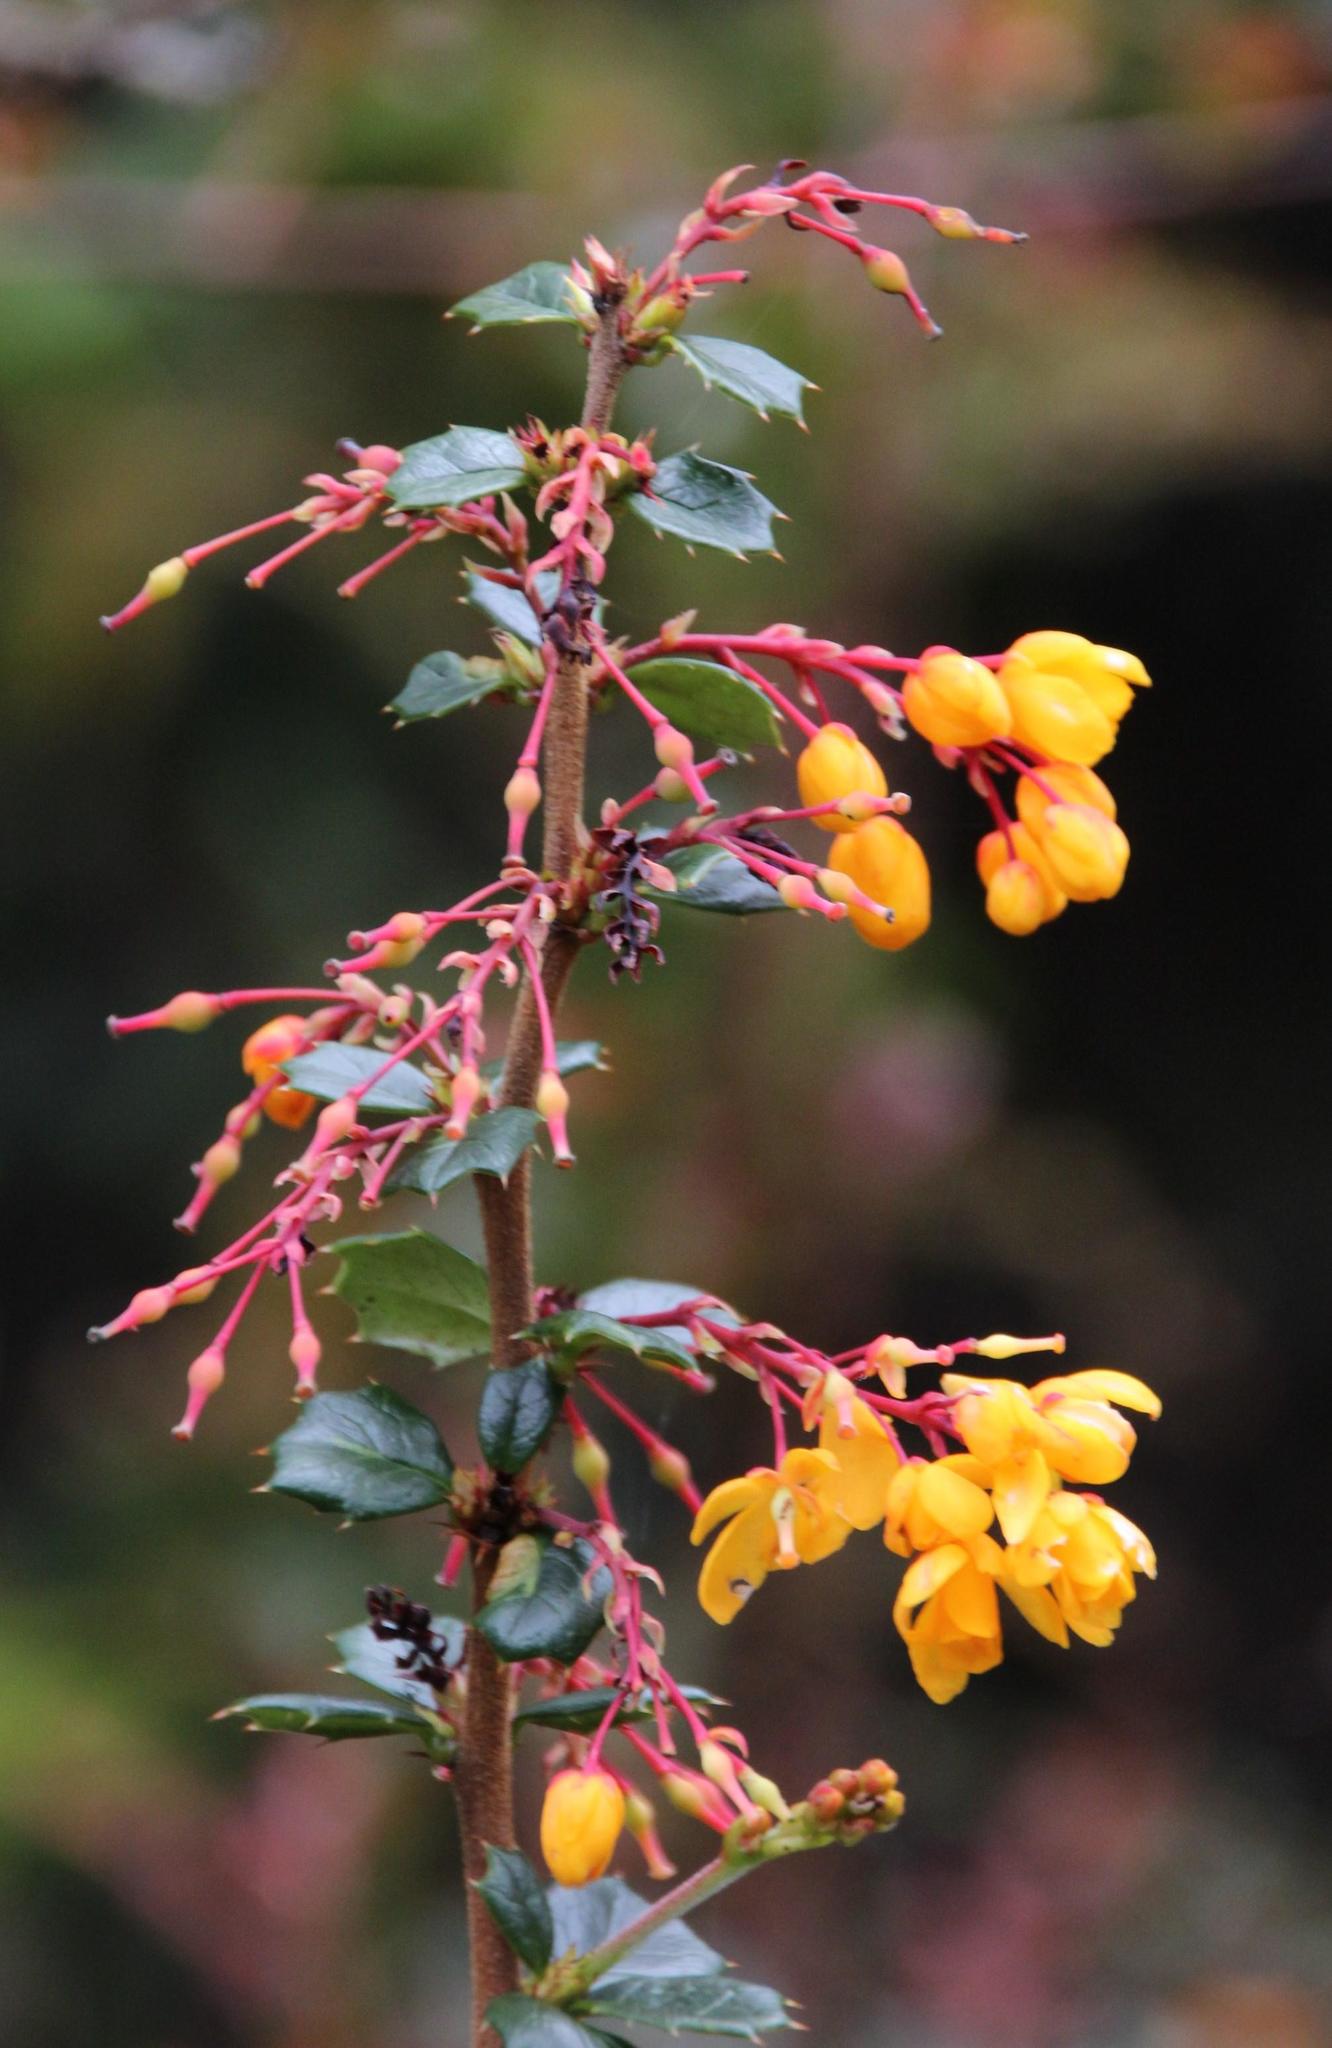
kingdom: Plantae
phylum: Tracheophyta
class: Magnoliopsida
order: Ranunculales
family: Berberidaceae
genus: Berberis
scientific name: Berberis darwinii
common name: Darwin's barberry
